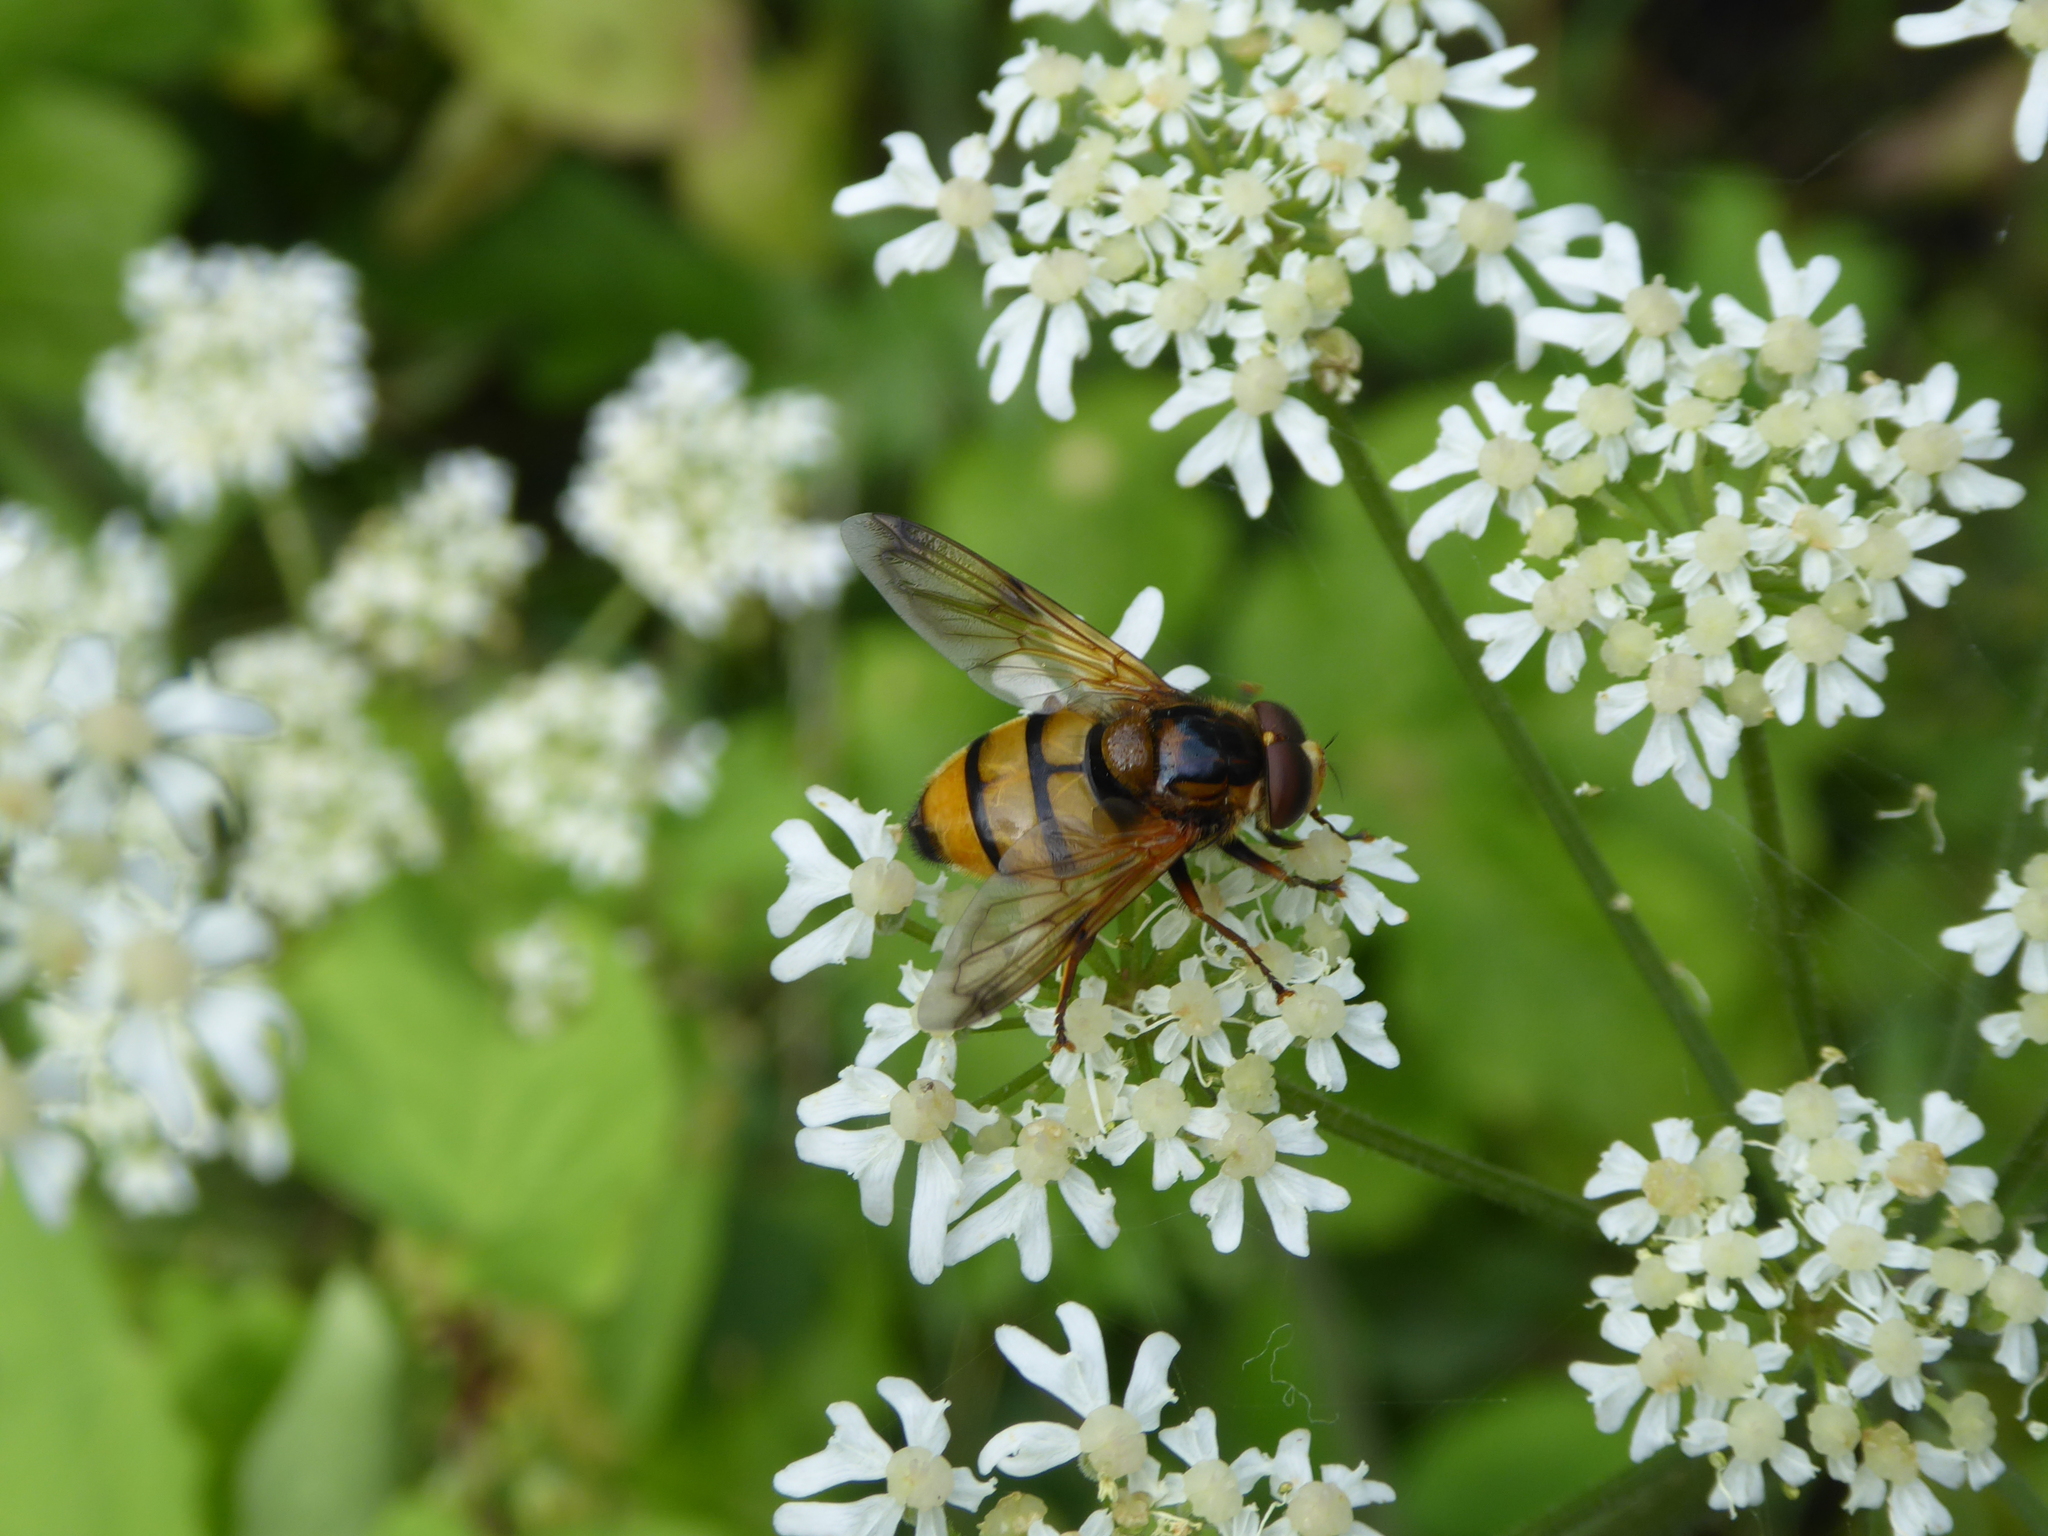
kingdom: Animalia
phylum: Arthropoda
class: Insecta
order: Diptera
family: Syrphidae
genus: Volucella
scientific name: Volucella inanis
